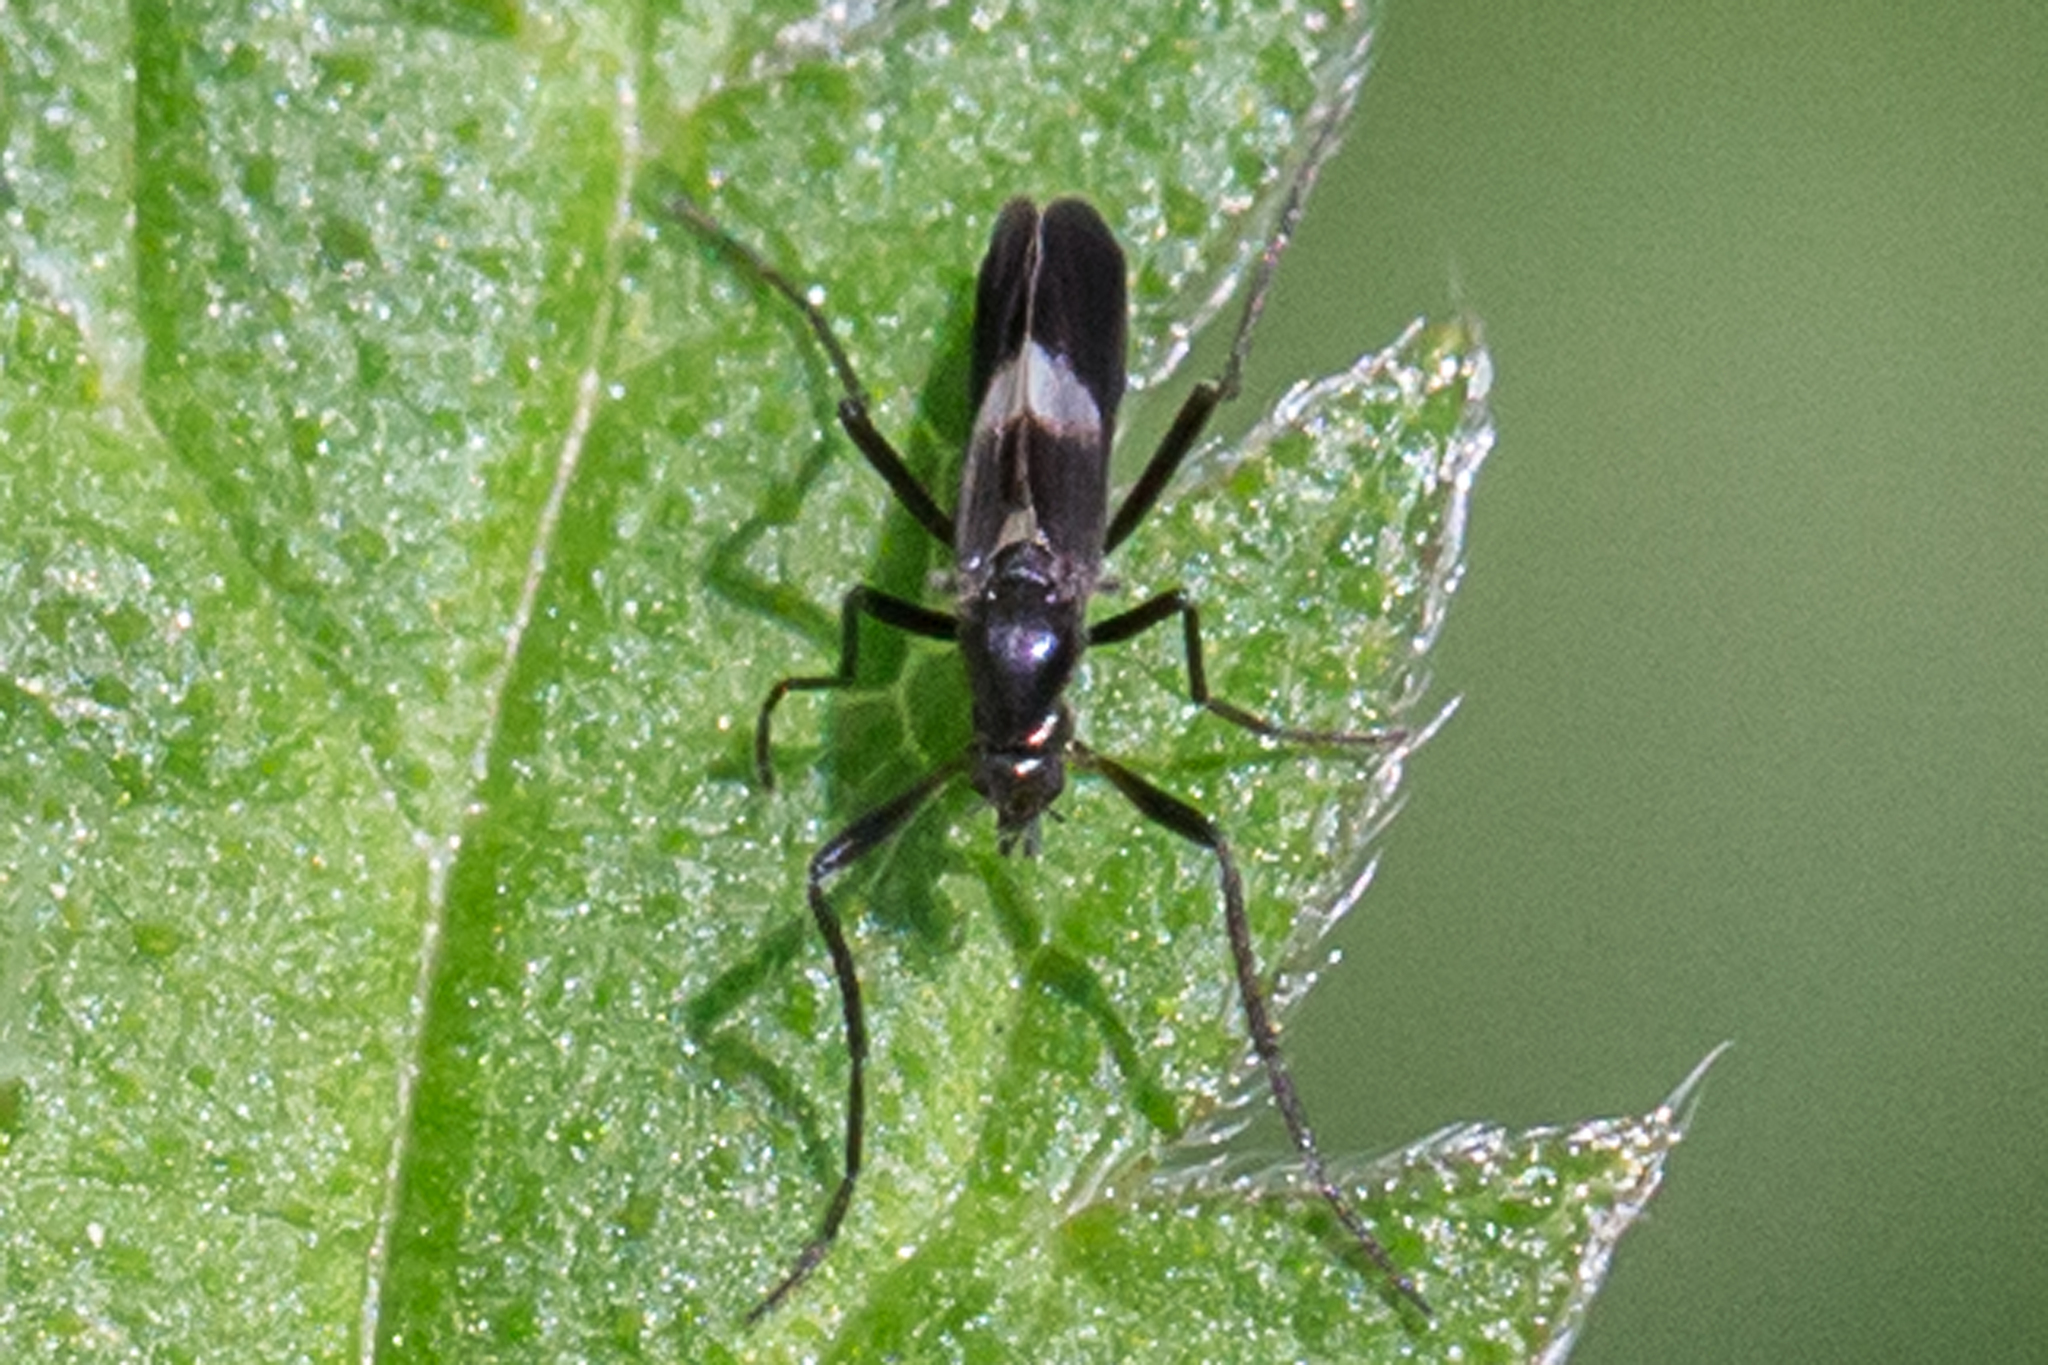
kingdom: Animalia
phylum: Arthropoda
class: Insecta
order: Diptera
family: Chironomidae
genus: Chasmatonotus
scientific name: Chasmatonotus unimaculatus
